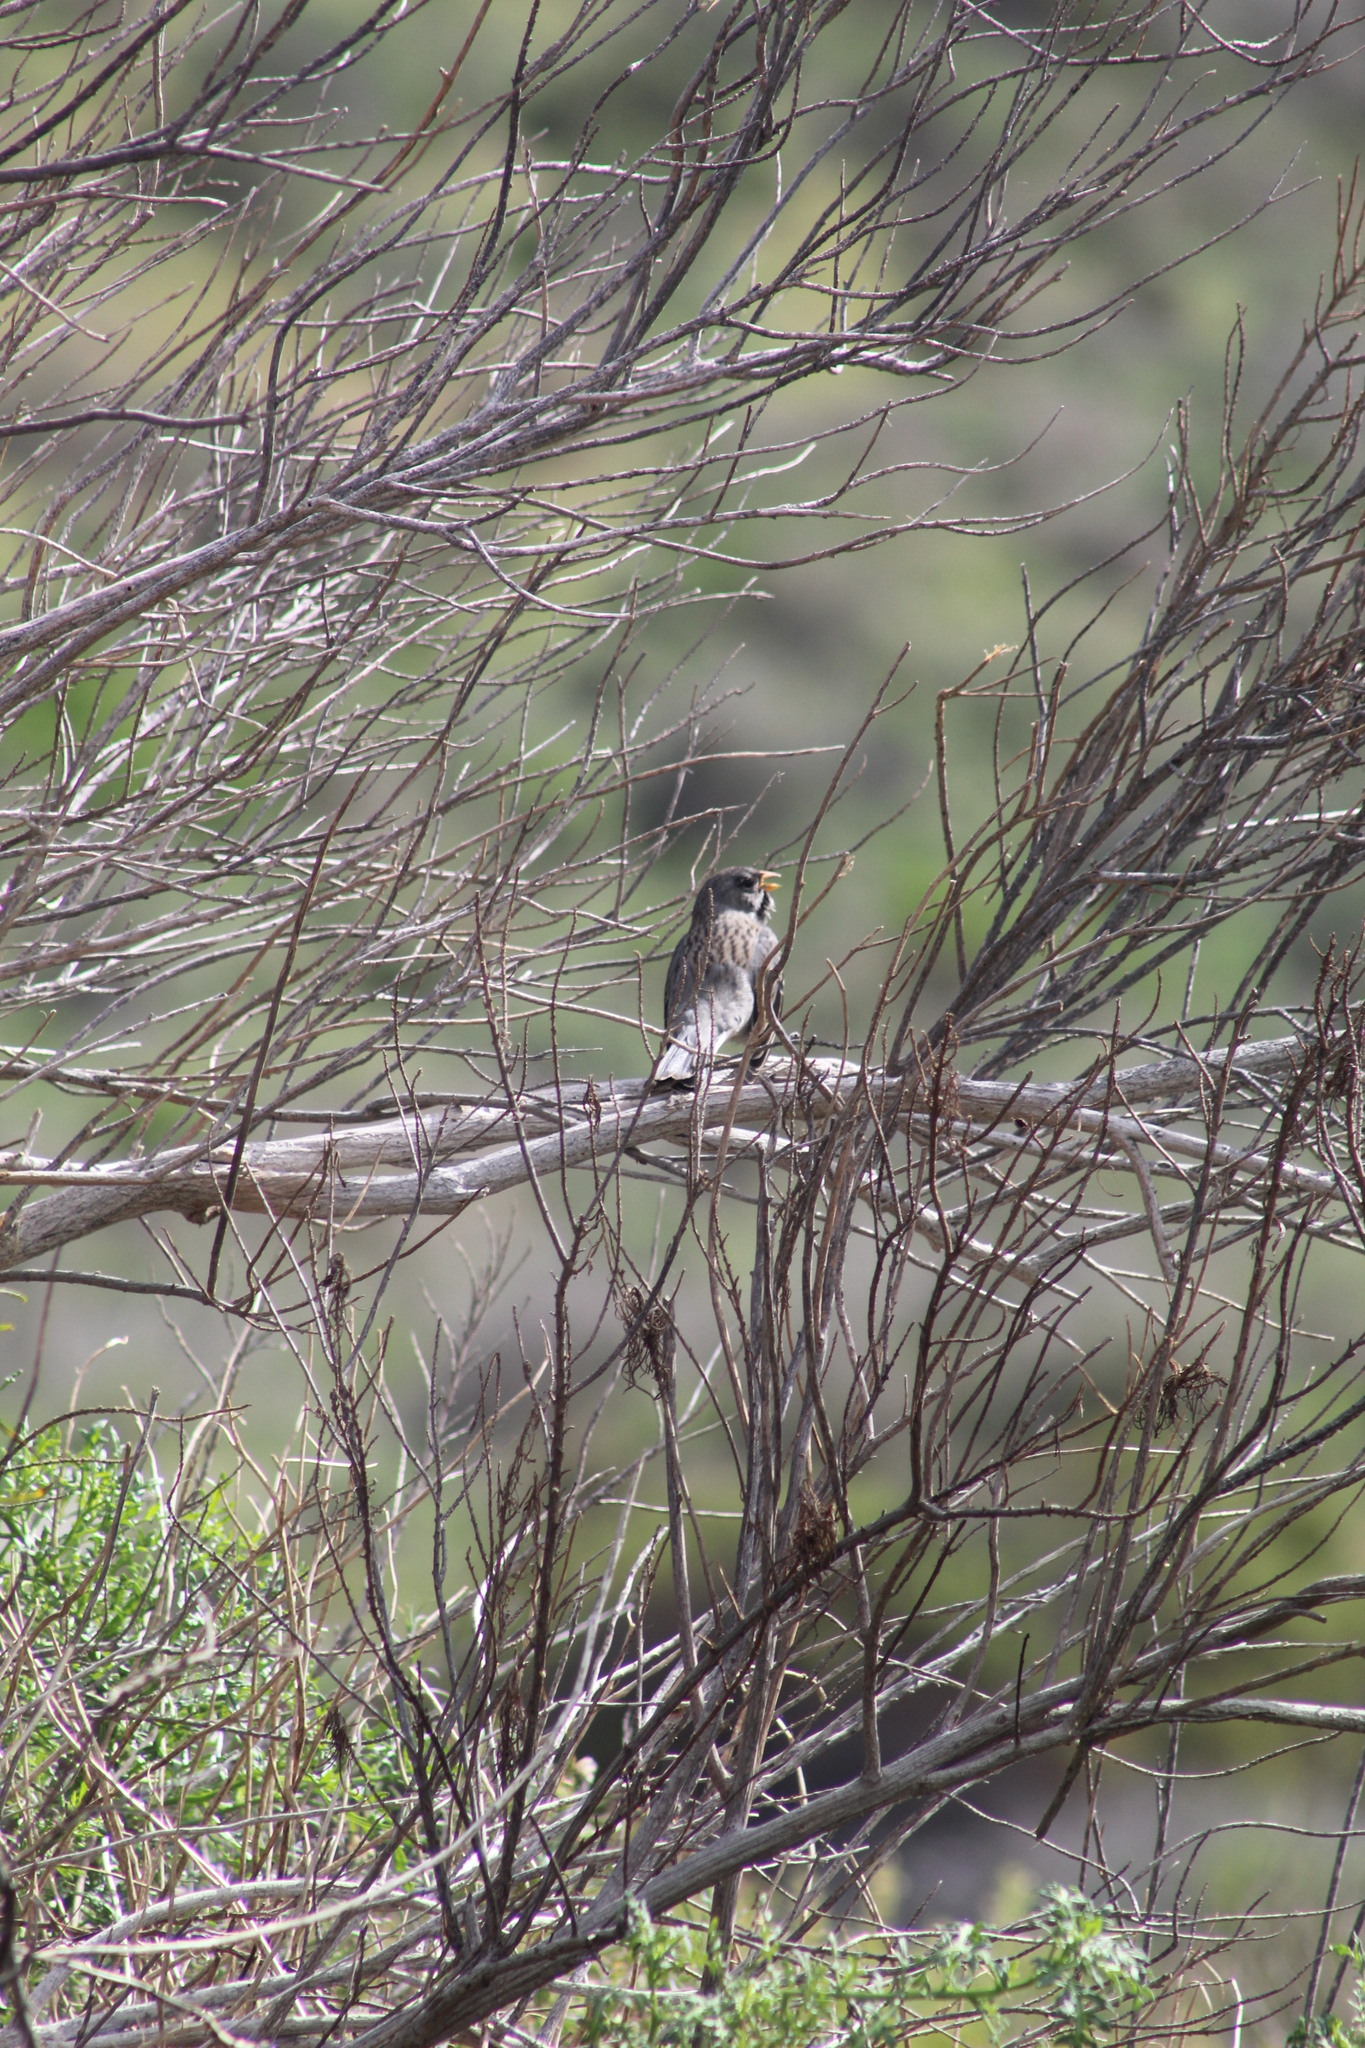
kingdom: Animalia
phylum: Chordata
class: Aves
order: Passeriformes
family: Thraupidae
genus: Rhopospina
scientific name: Rhopospina fruticeti
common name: Mourning sierra finch
